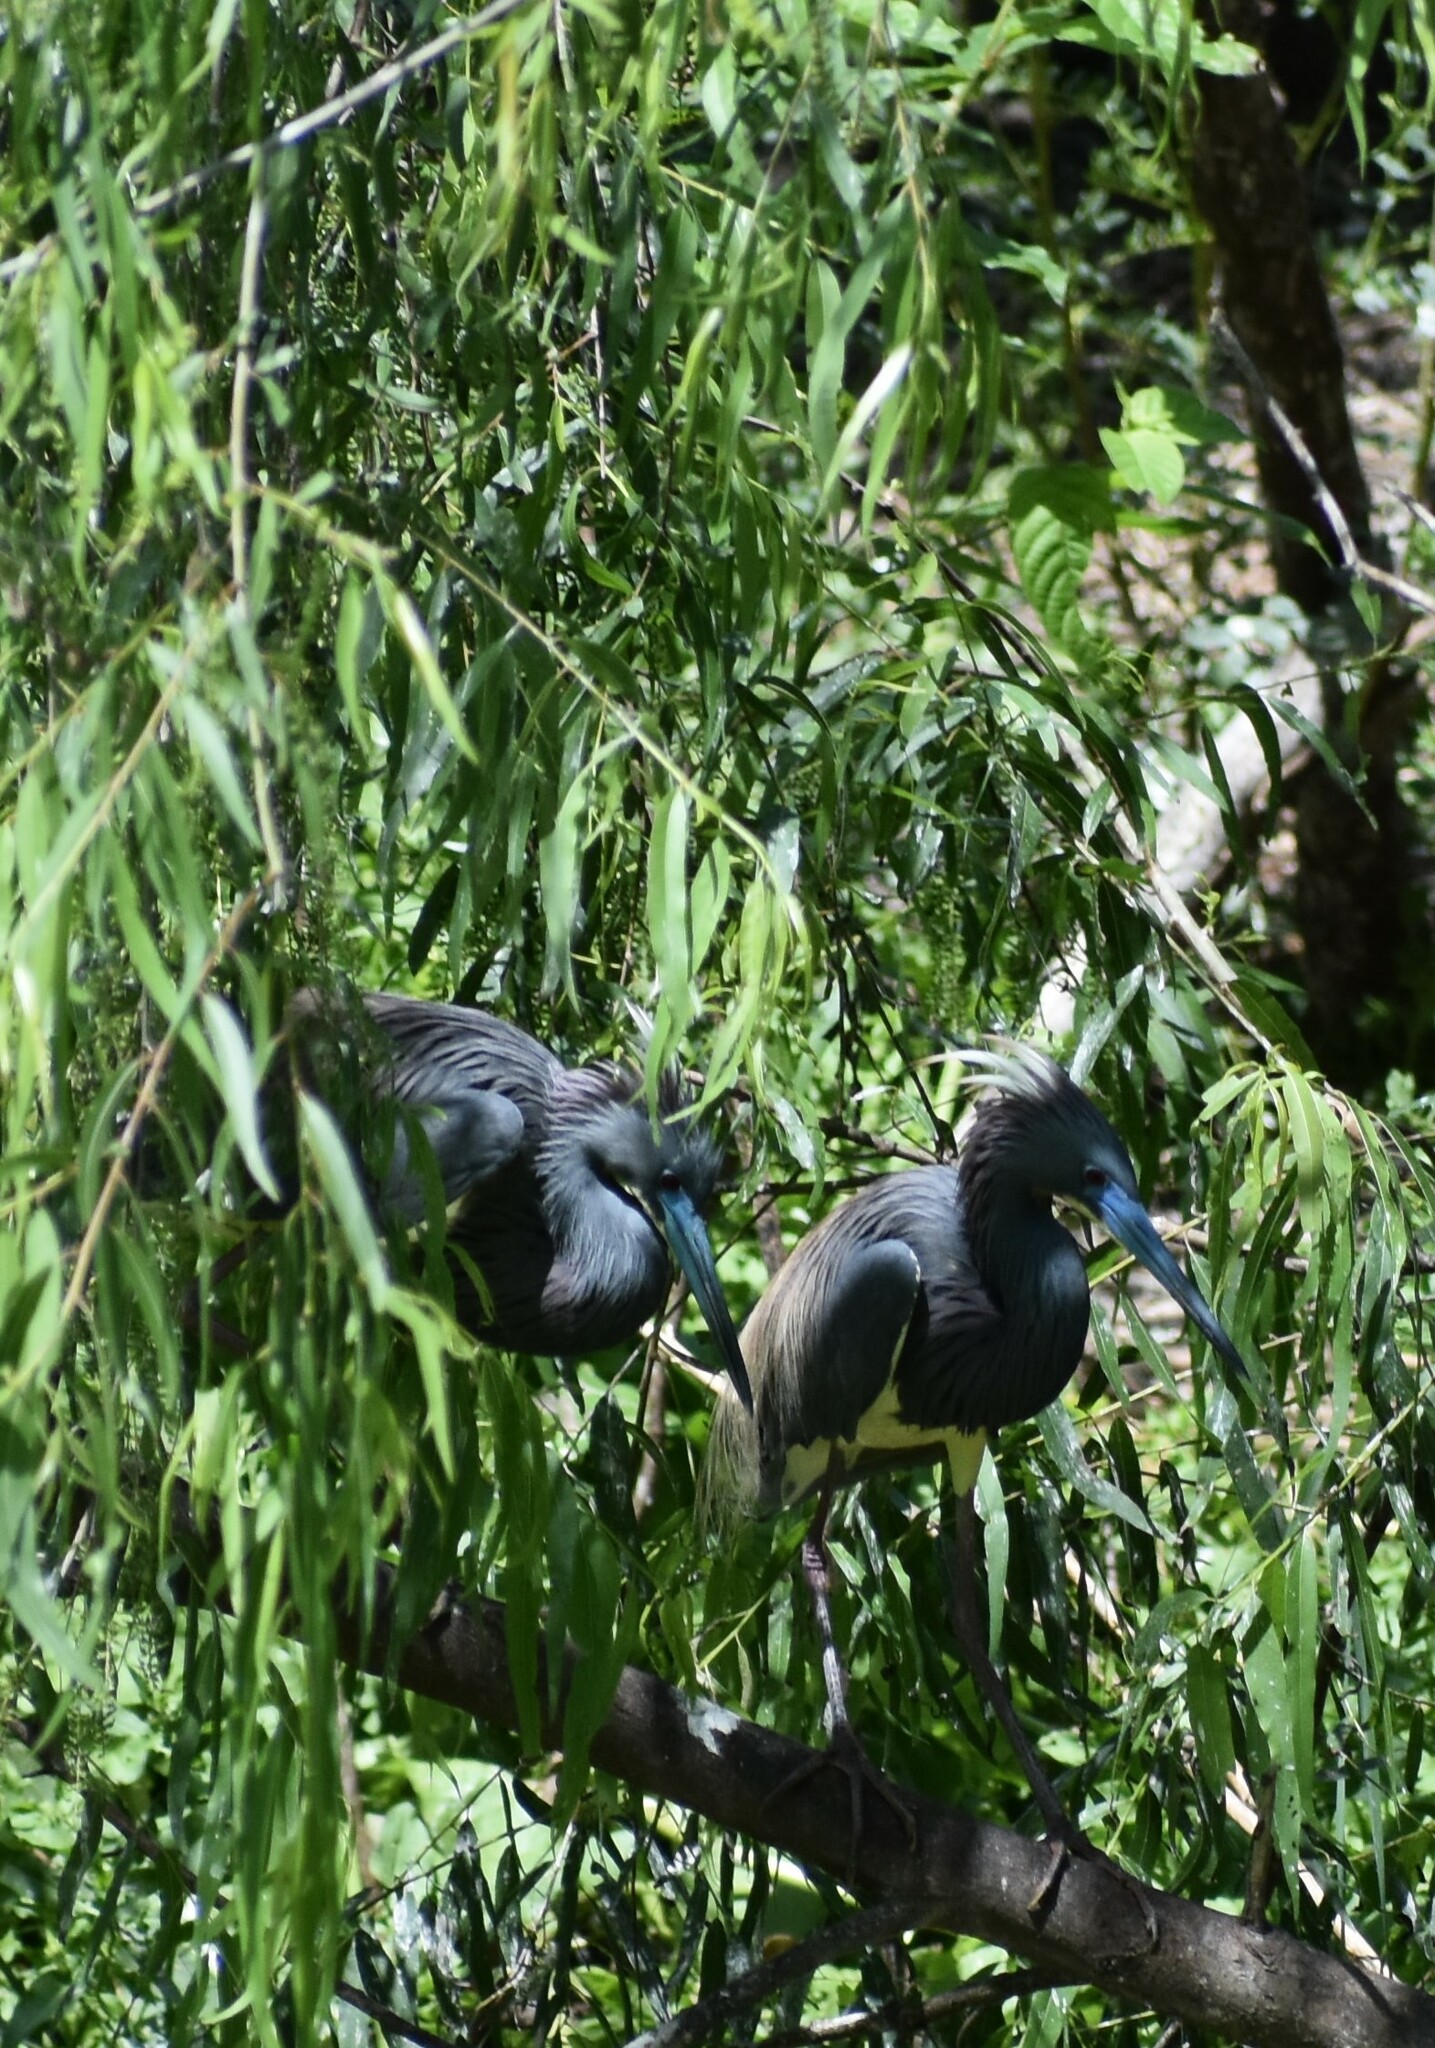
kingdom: Animalia
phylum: Chordata
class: Aves
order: Pelecaniformes
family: Ardeidae
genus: Egretta
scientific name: Egretta tricolor
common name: Tricolored heron
